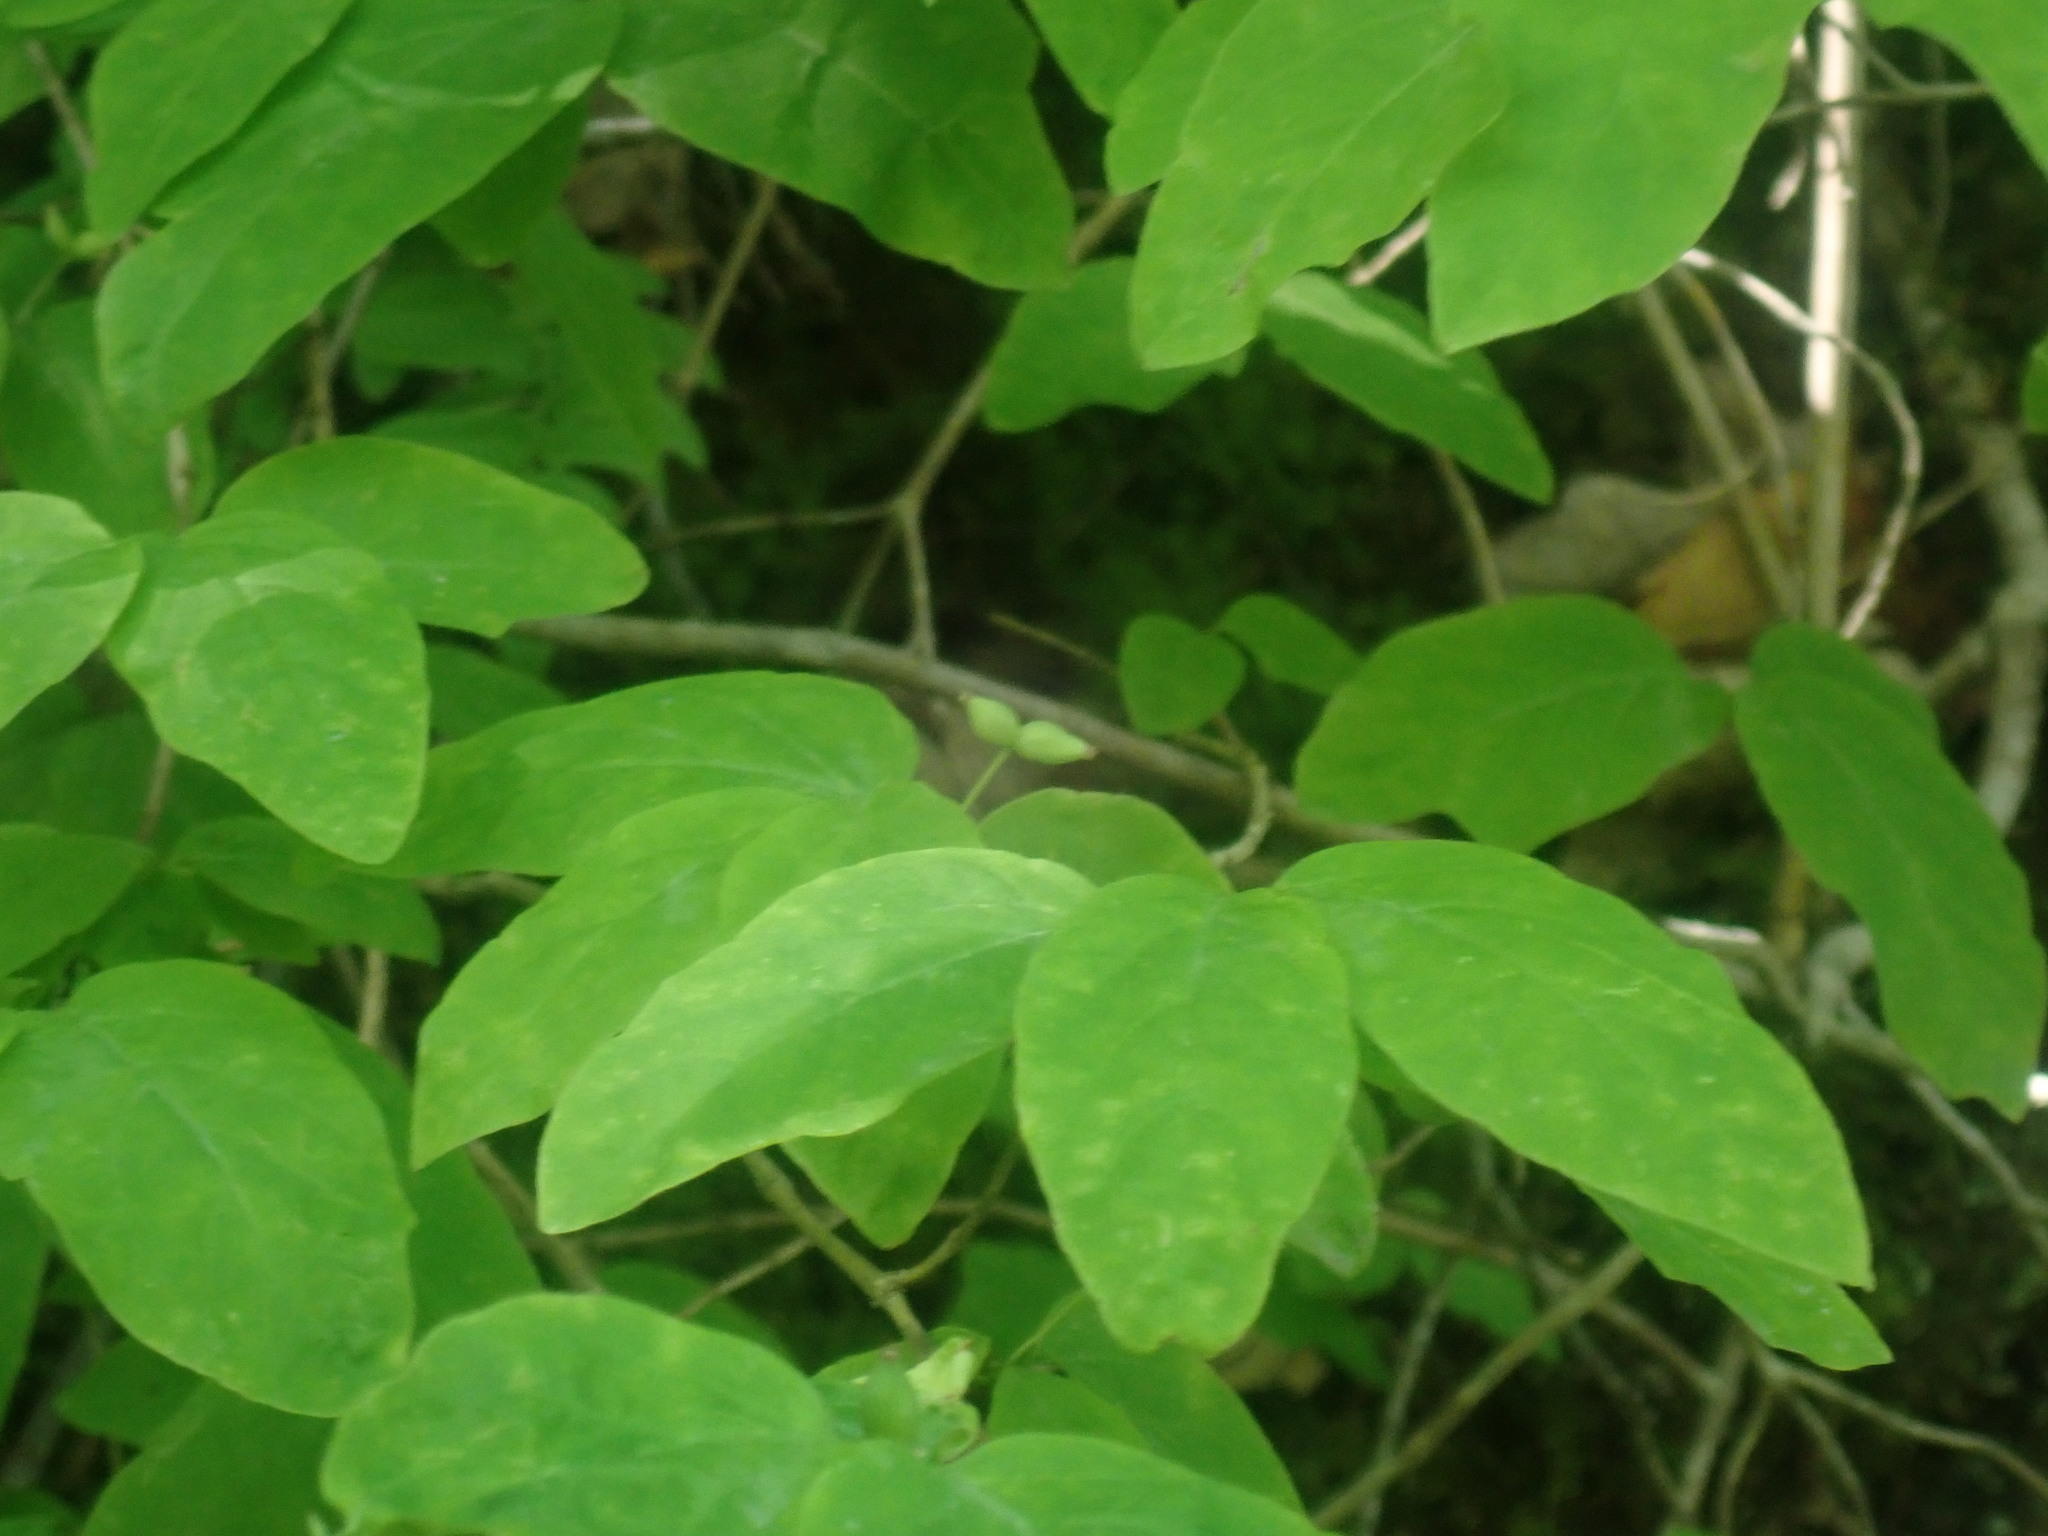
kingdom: Plantae
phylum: Tracheophyta
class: Magnoliopsida
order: Dipsacales
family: Caprifoliaceae
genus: Lonicera
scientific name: Lonicera canadensis
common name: American fly-honeysuckle
